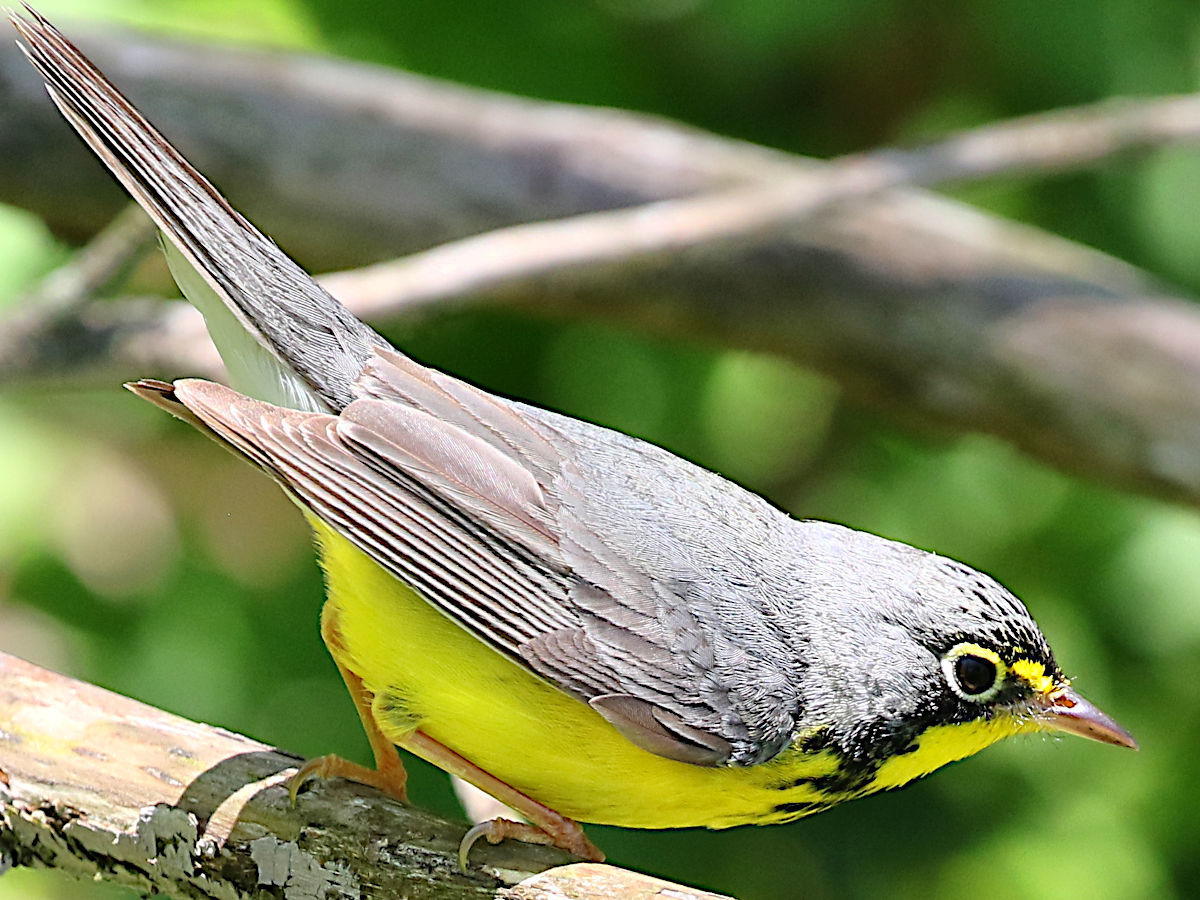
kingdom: Animalia
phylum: Chordata
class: Aves
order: Passeriformes
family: Parulidae
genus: Cardellina
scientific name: Cardellina canadensis
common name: Canada warbler
